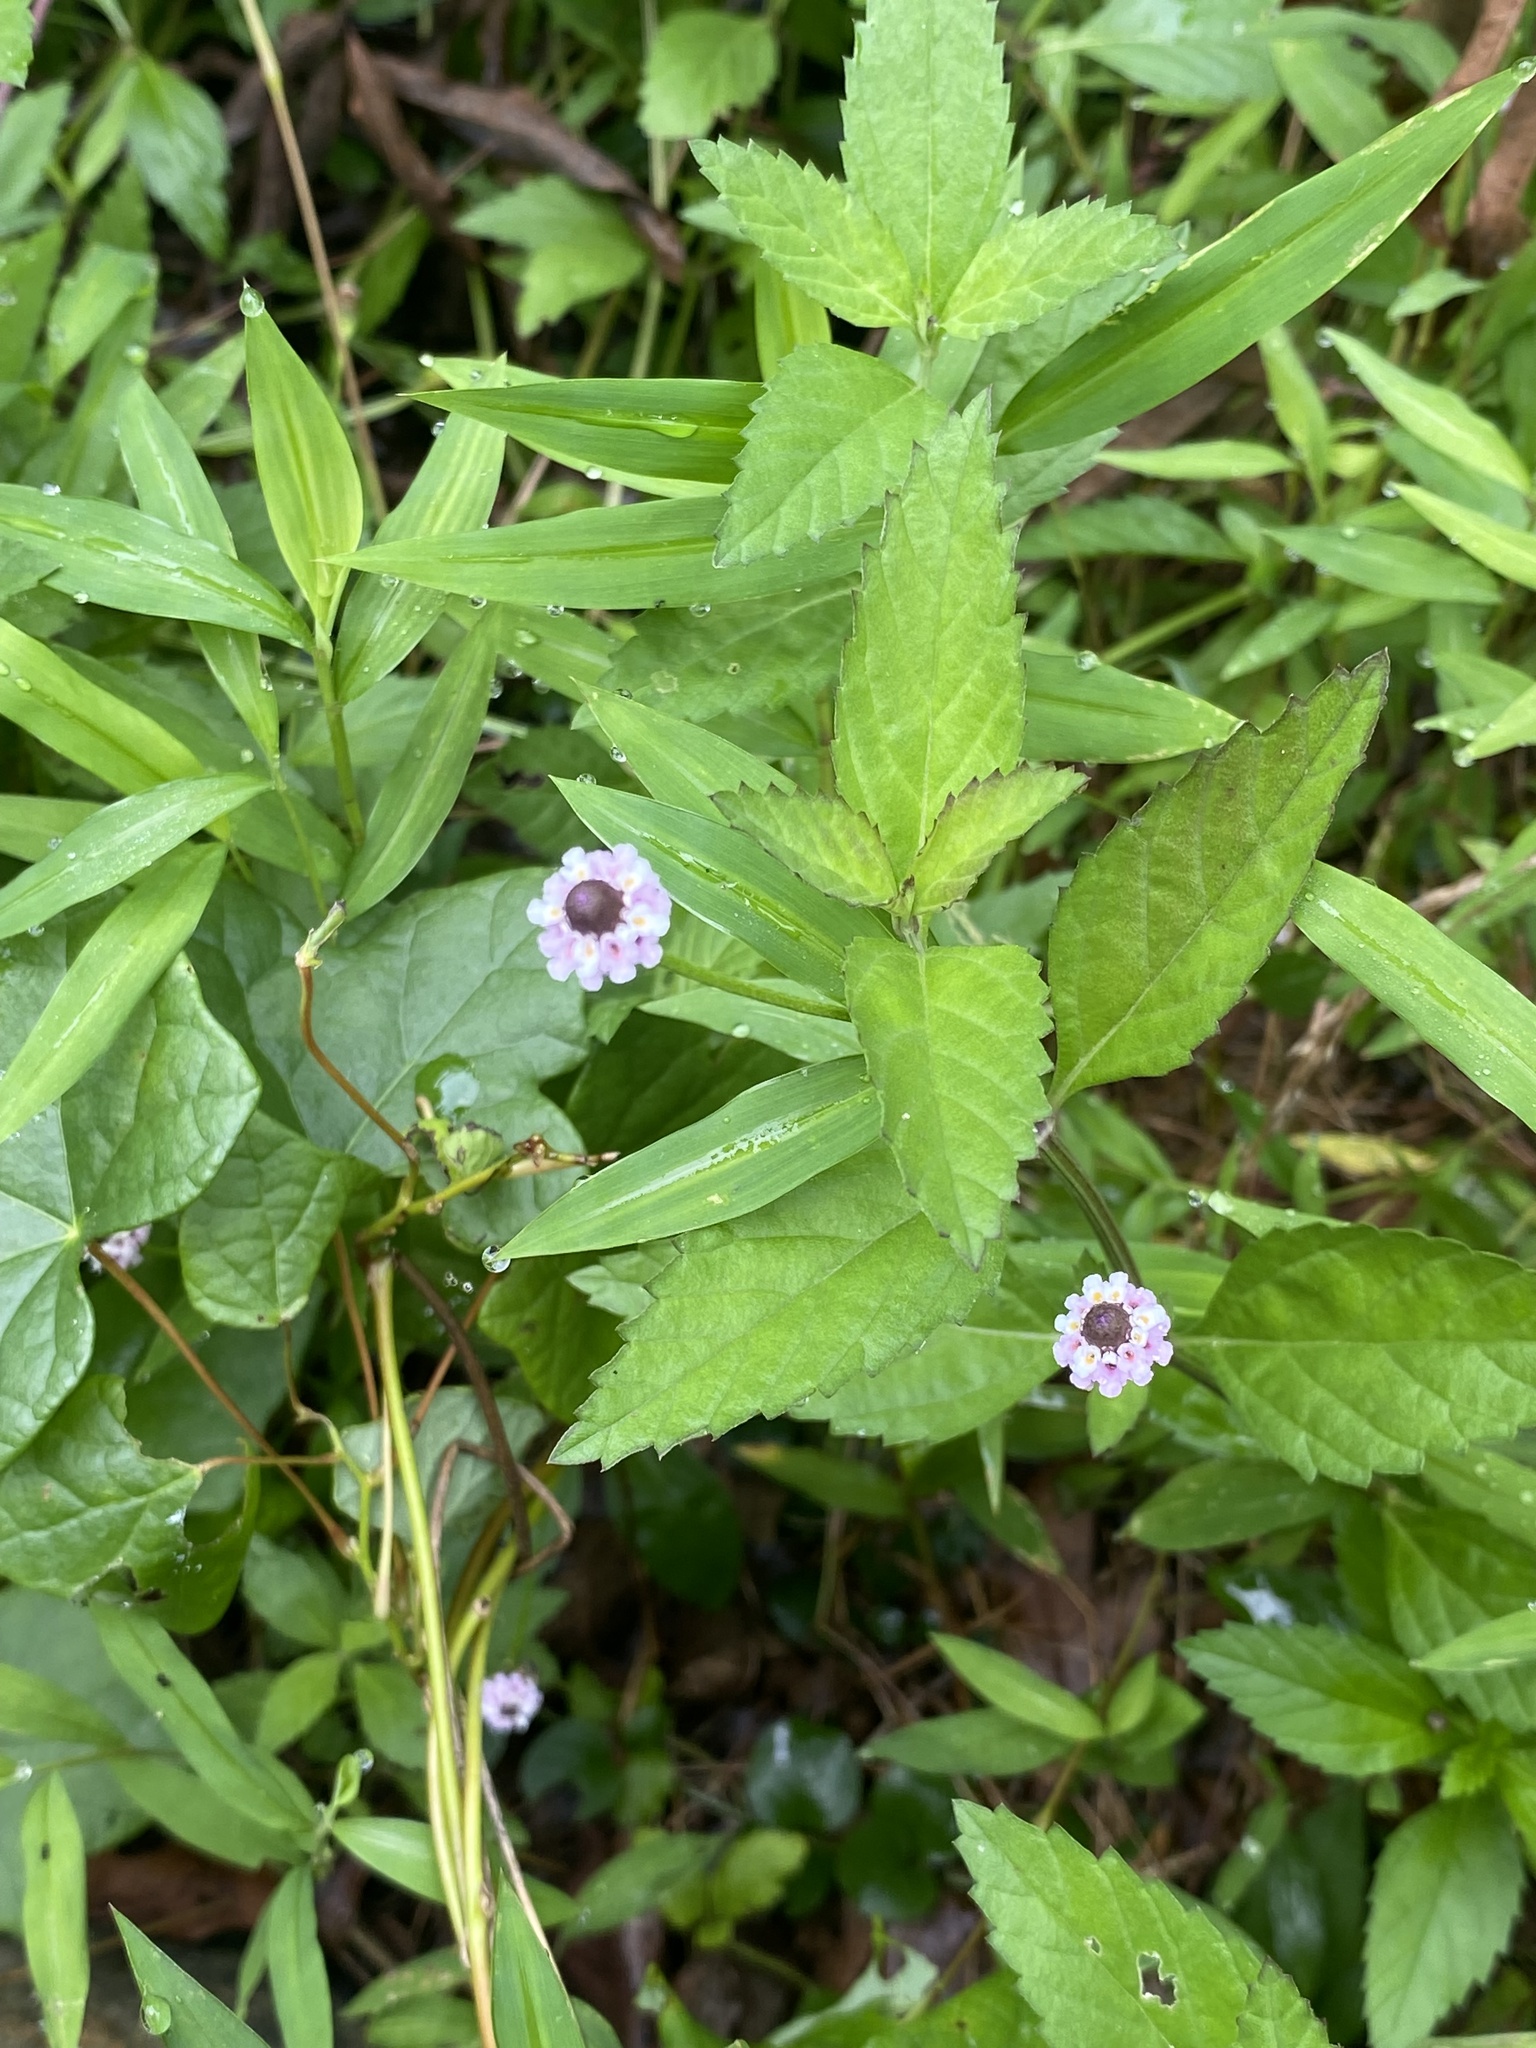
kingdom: Plantae
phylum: Tracheophyta
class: Magnoliopsida
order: Lamiales
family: Verbenaceae
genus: Phyla
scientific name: Phyla lanceolata
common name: Northern fogfruit
